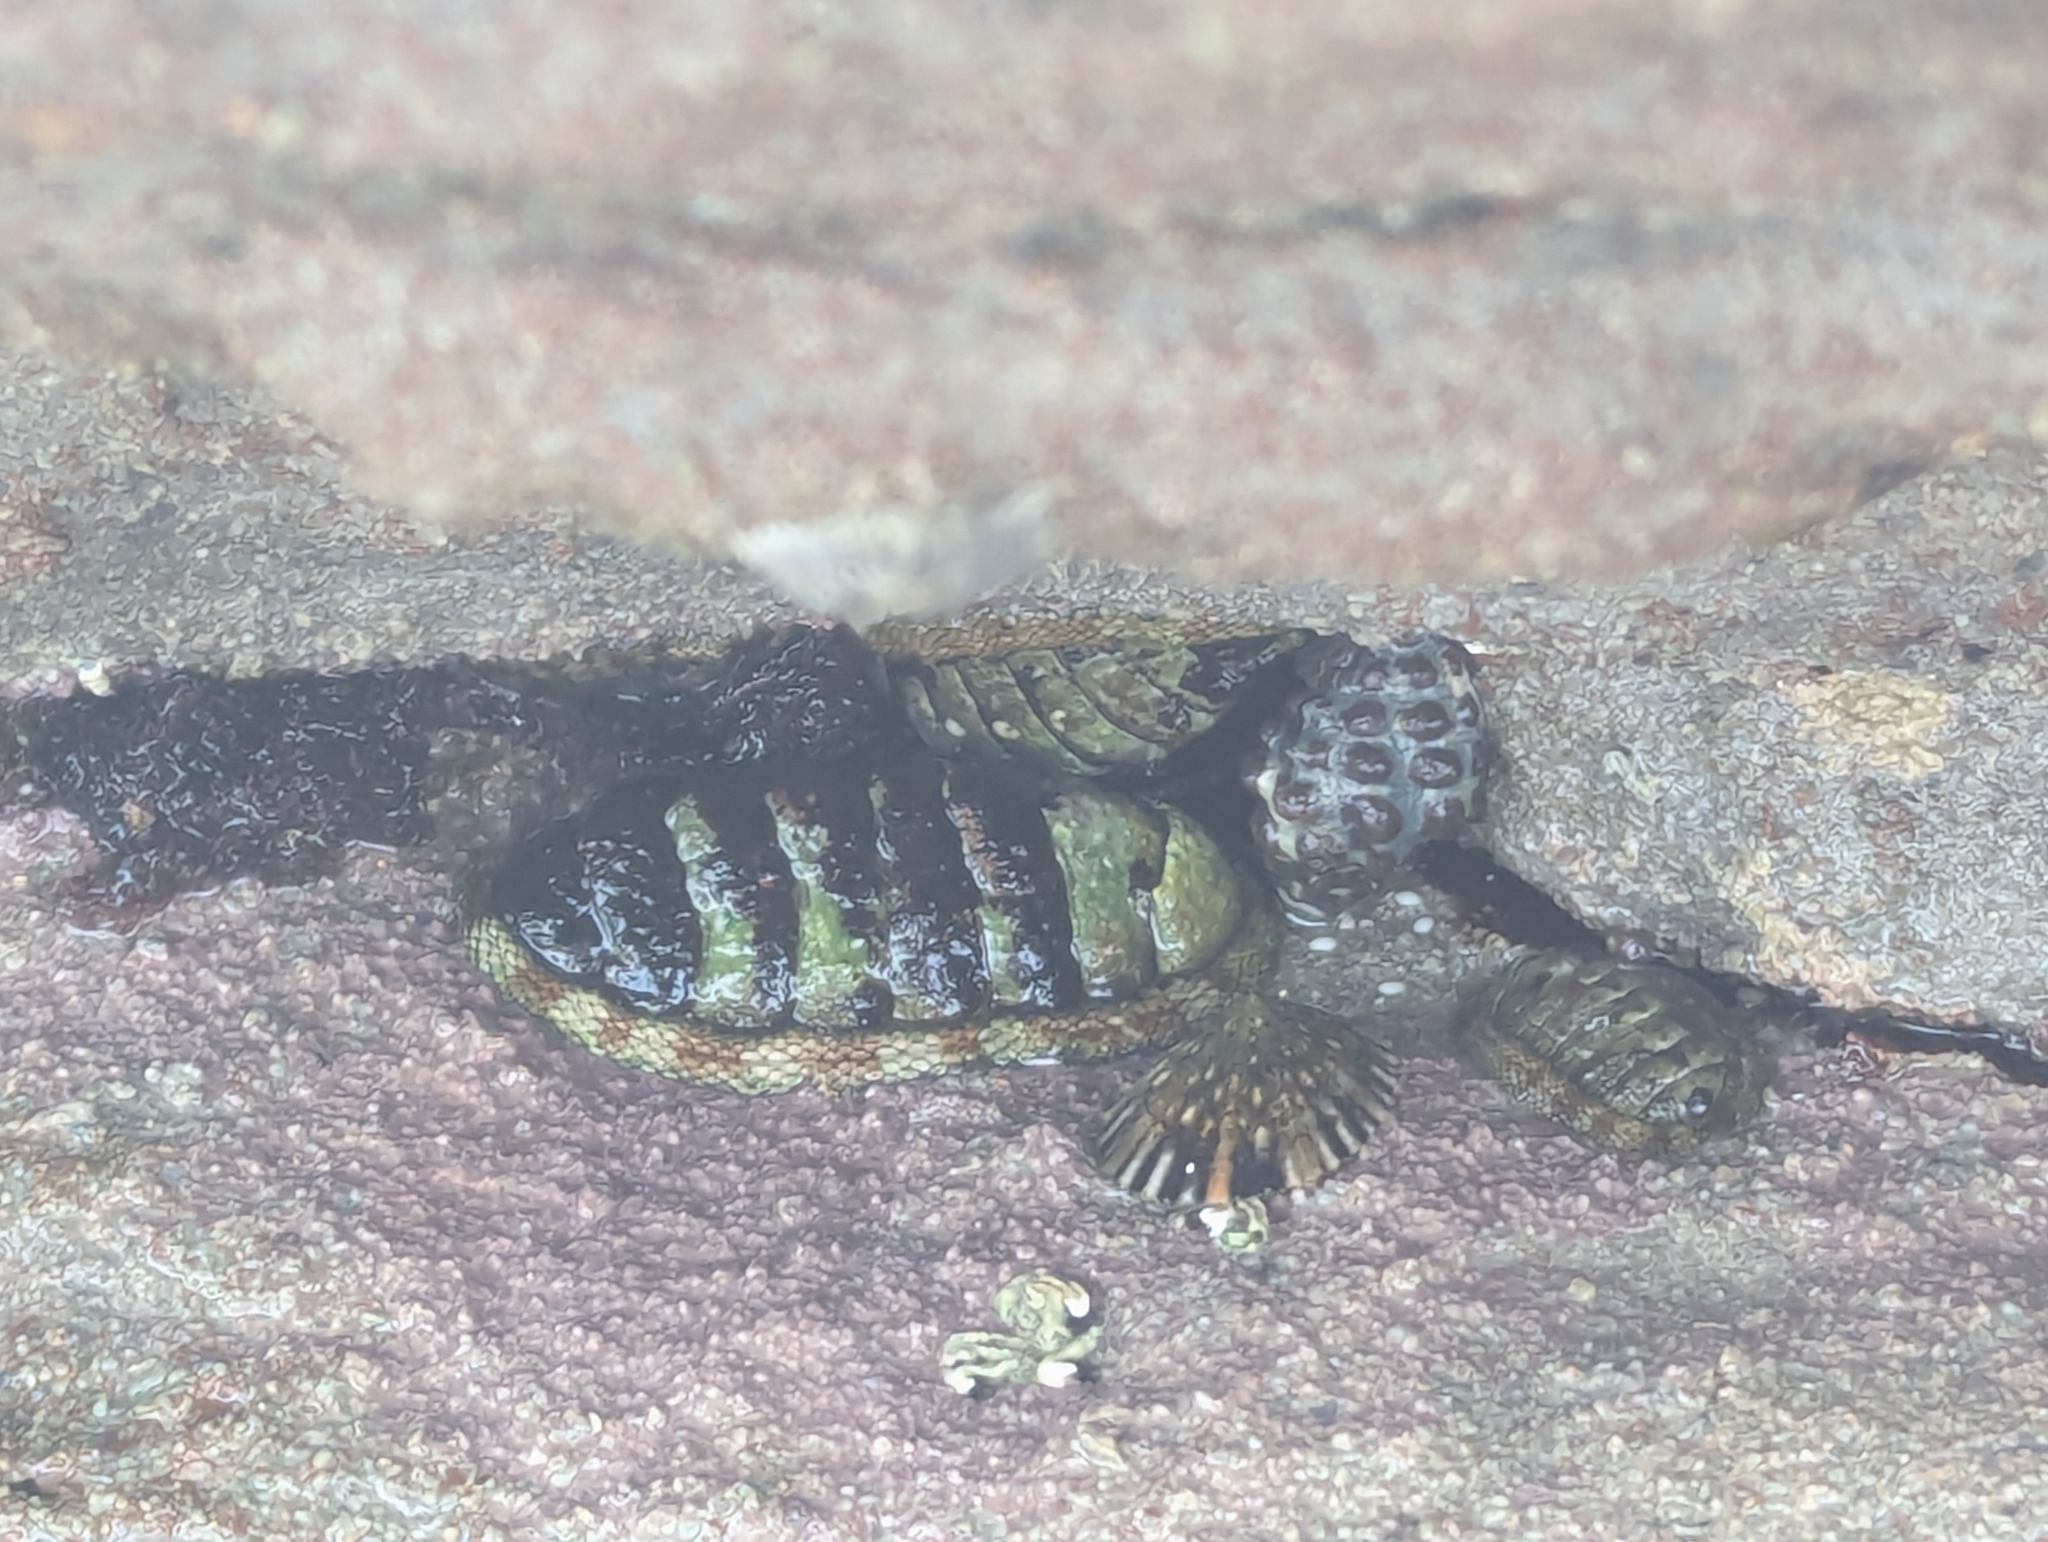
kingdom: Animalia
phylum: Mollusca
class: Polyplacophora
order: Chitonida
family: Chitonidae
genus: Sypharochiton
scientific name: Sypharochiton pelliserpentis
